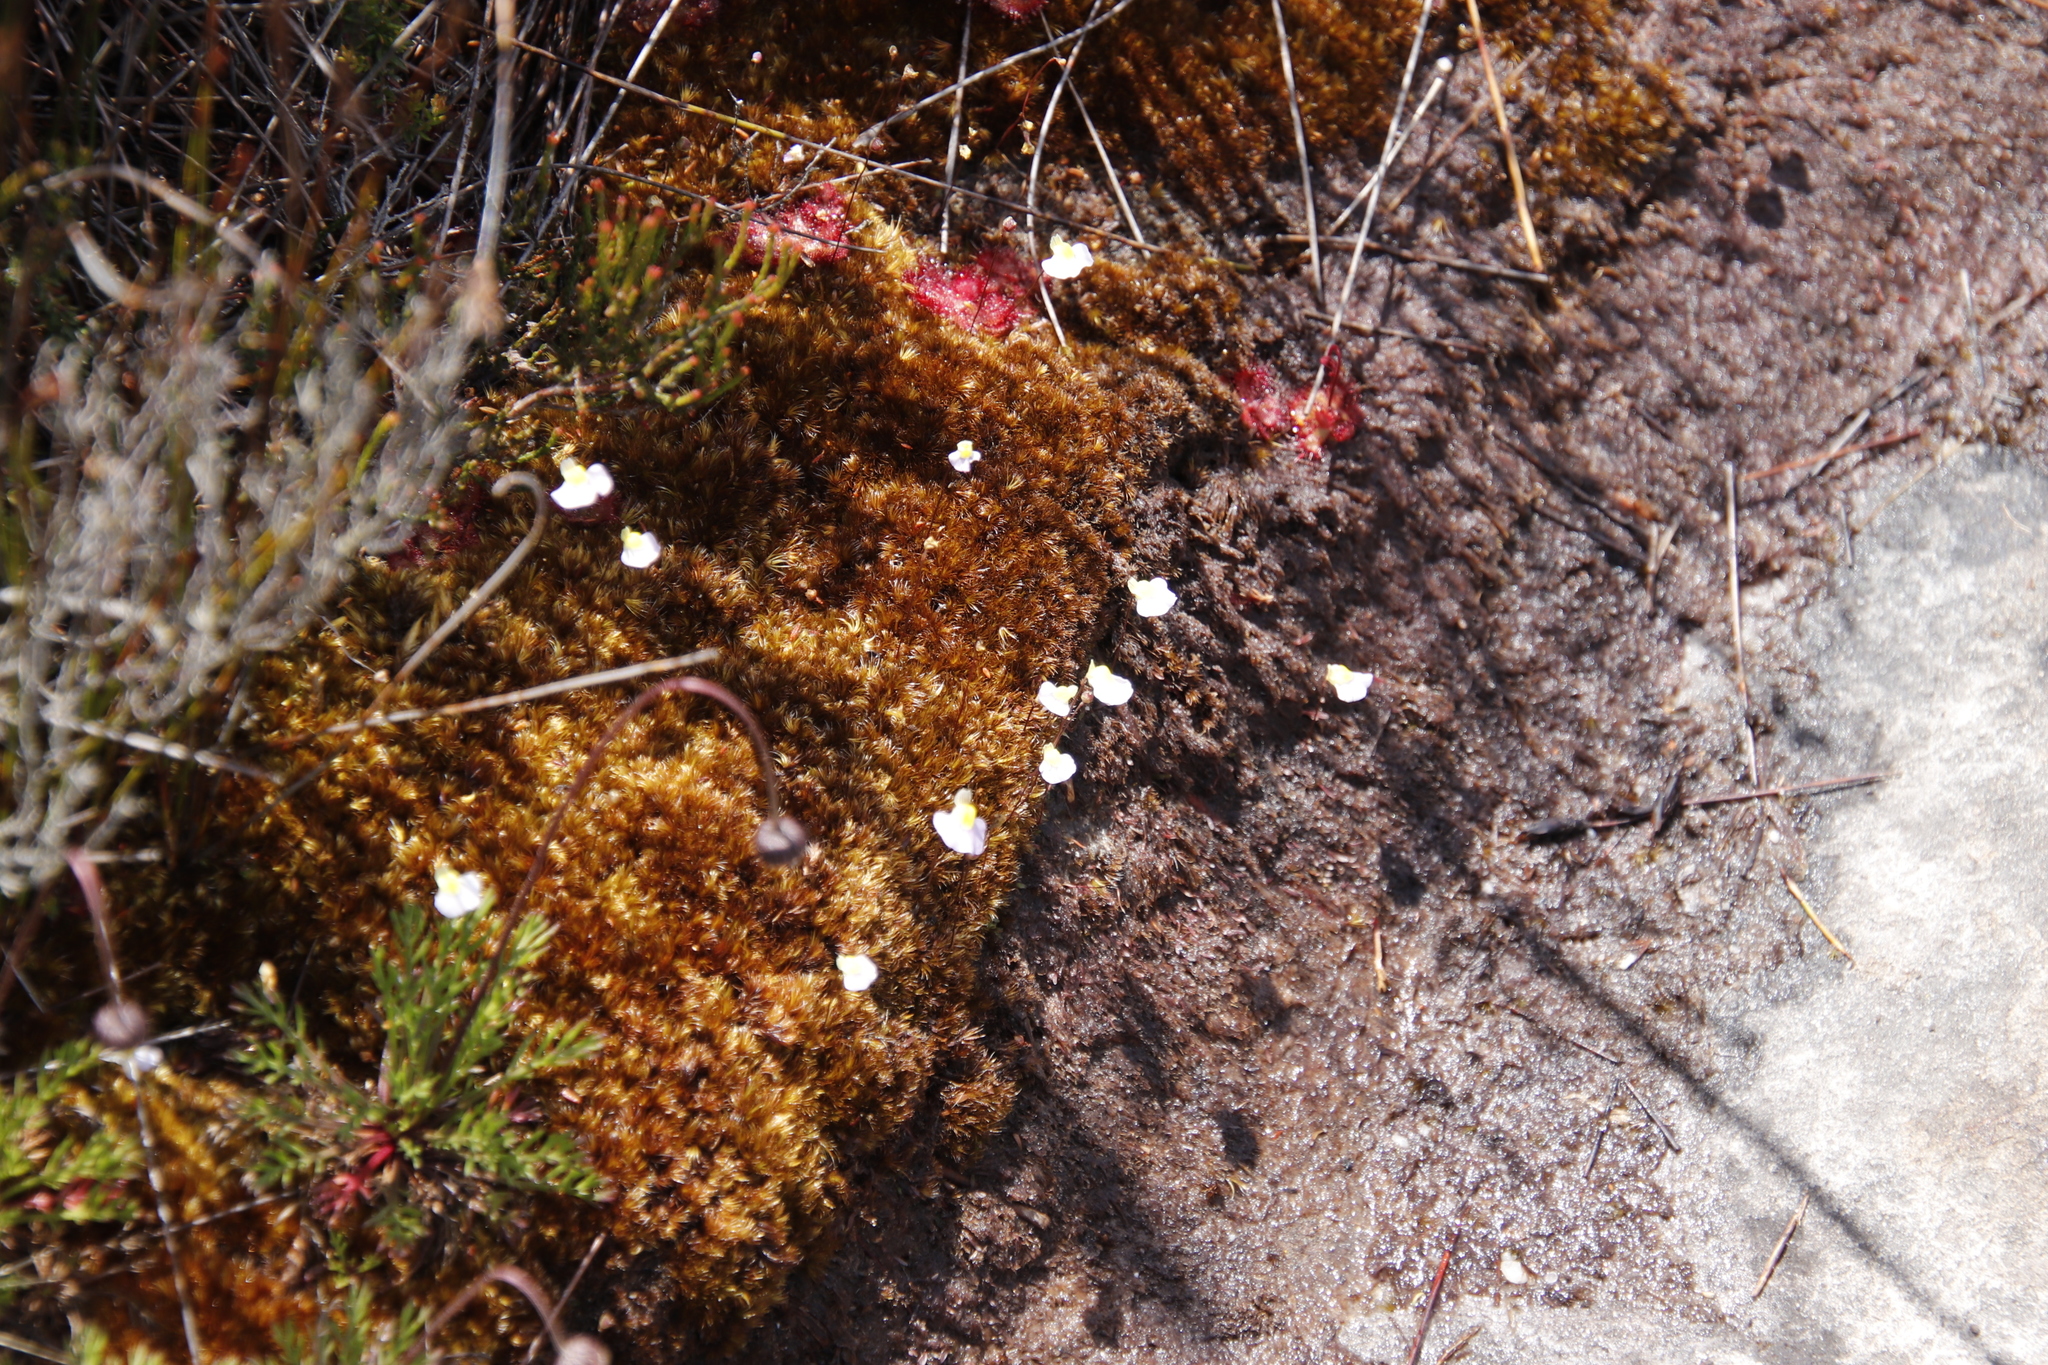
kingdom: Plantae
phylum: Tracheophyta
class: Magnoliopsida
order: Lamiales
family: Lentibulariaceae
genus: Utricularia
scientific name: Utricularia bisquamata
